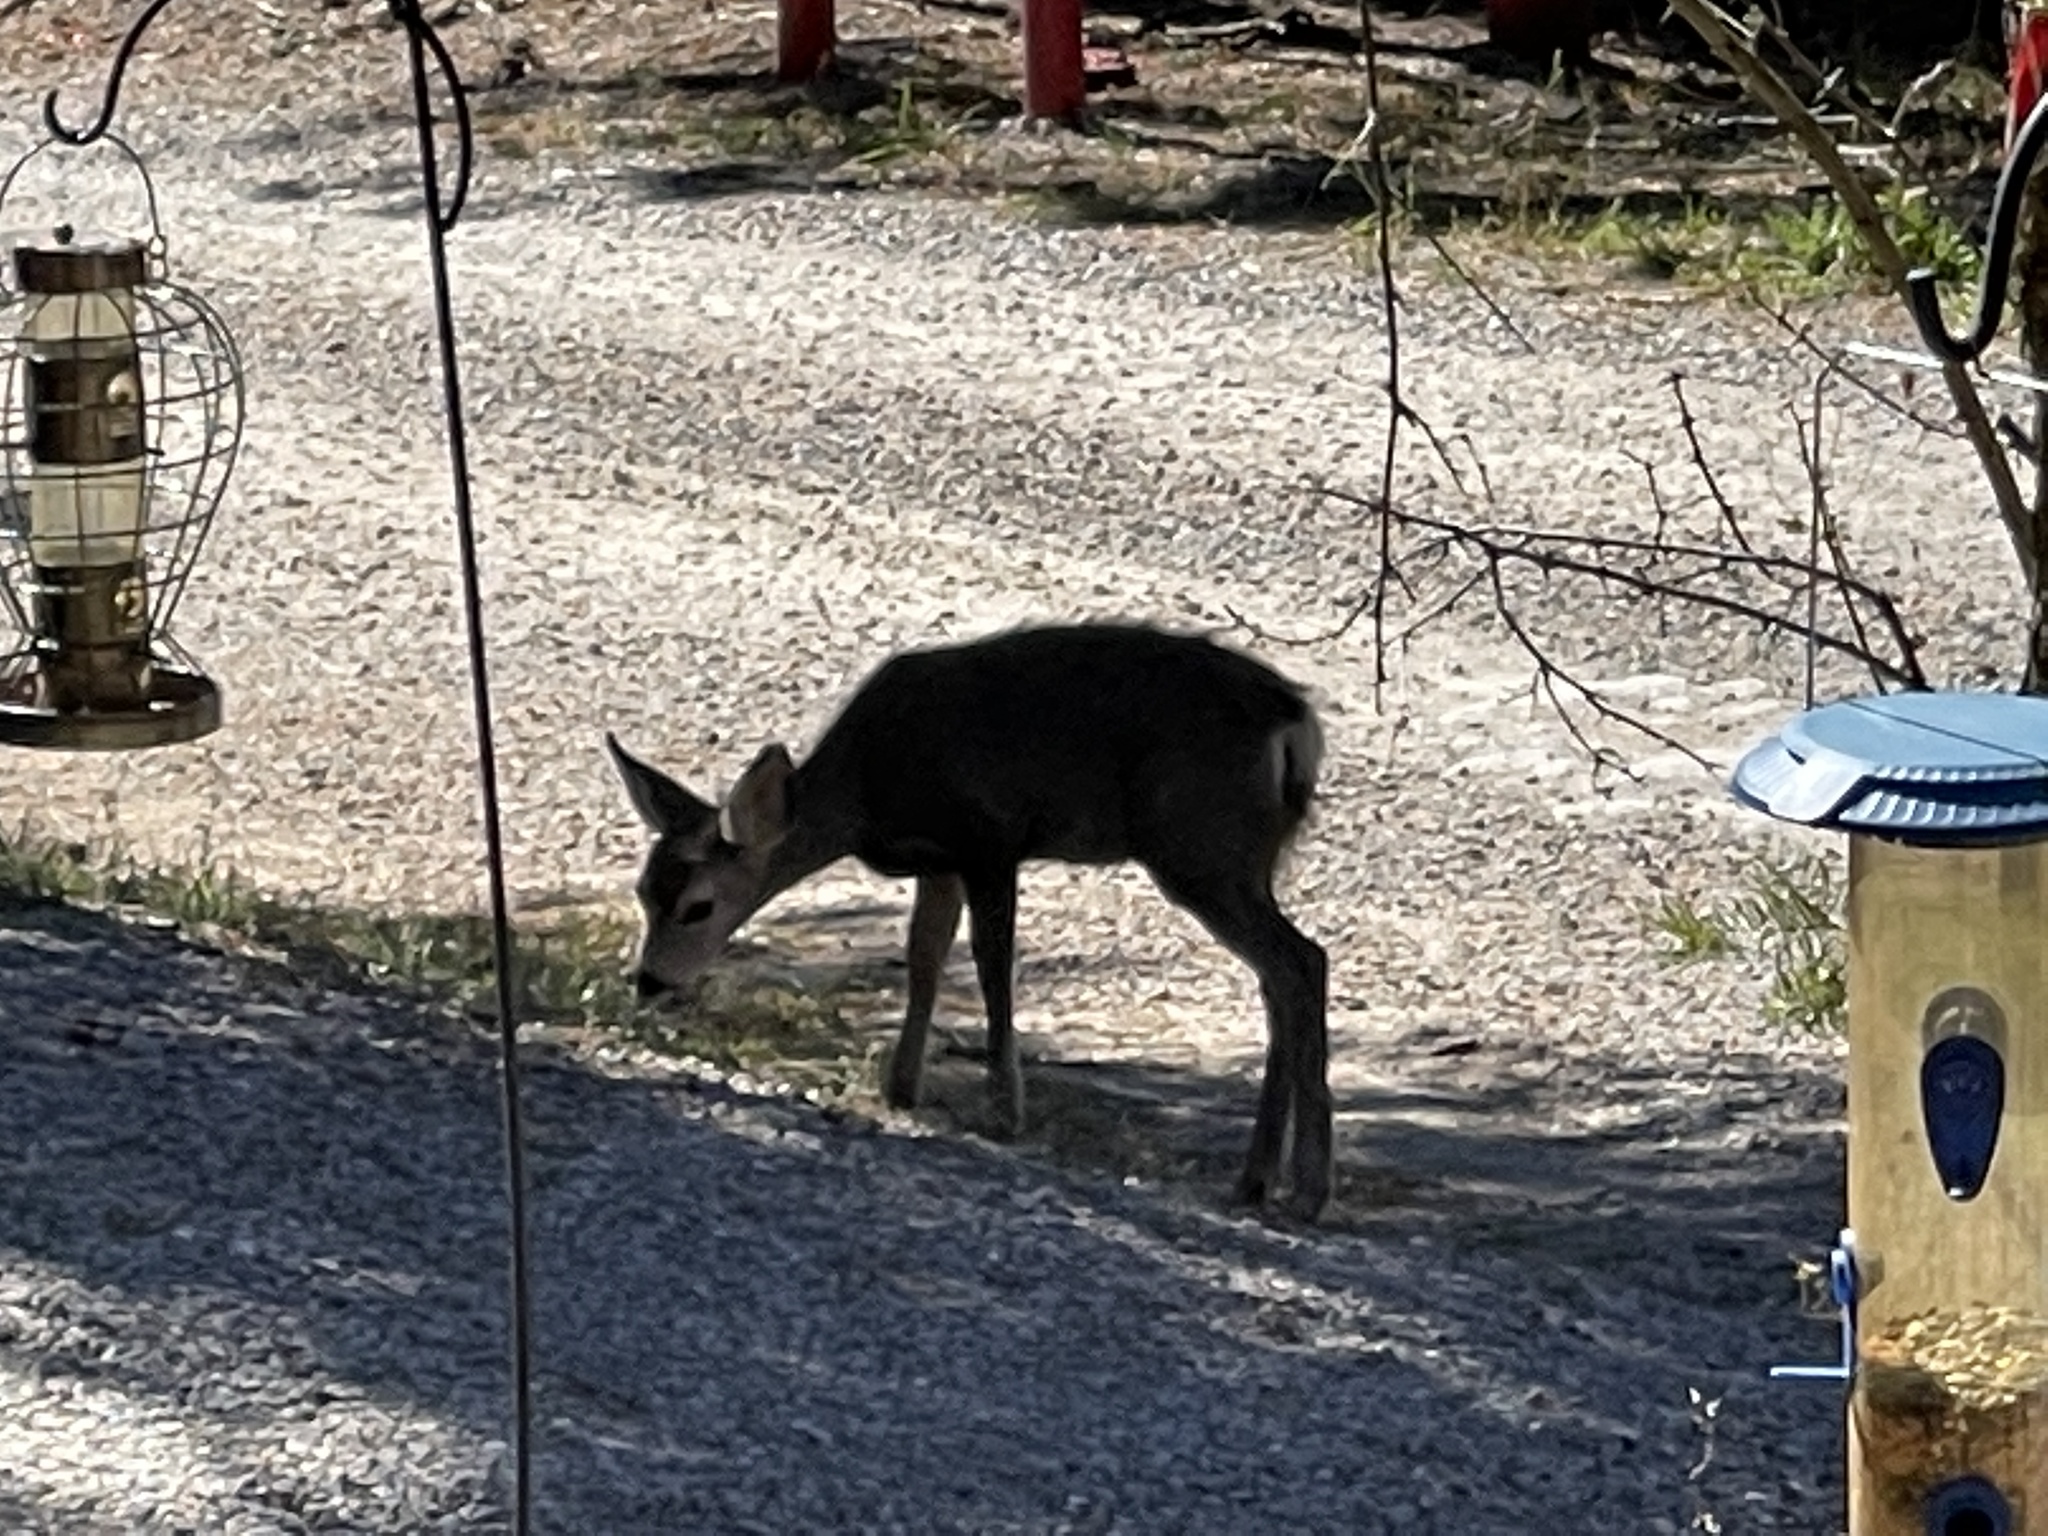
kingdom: Animalia
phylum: Chordata
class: Mammalia
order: Artiodactyla
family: Cervidae
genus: Odocoileus
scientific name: Odocoileus hemionus
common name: Mule deer
